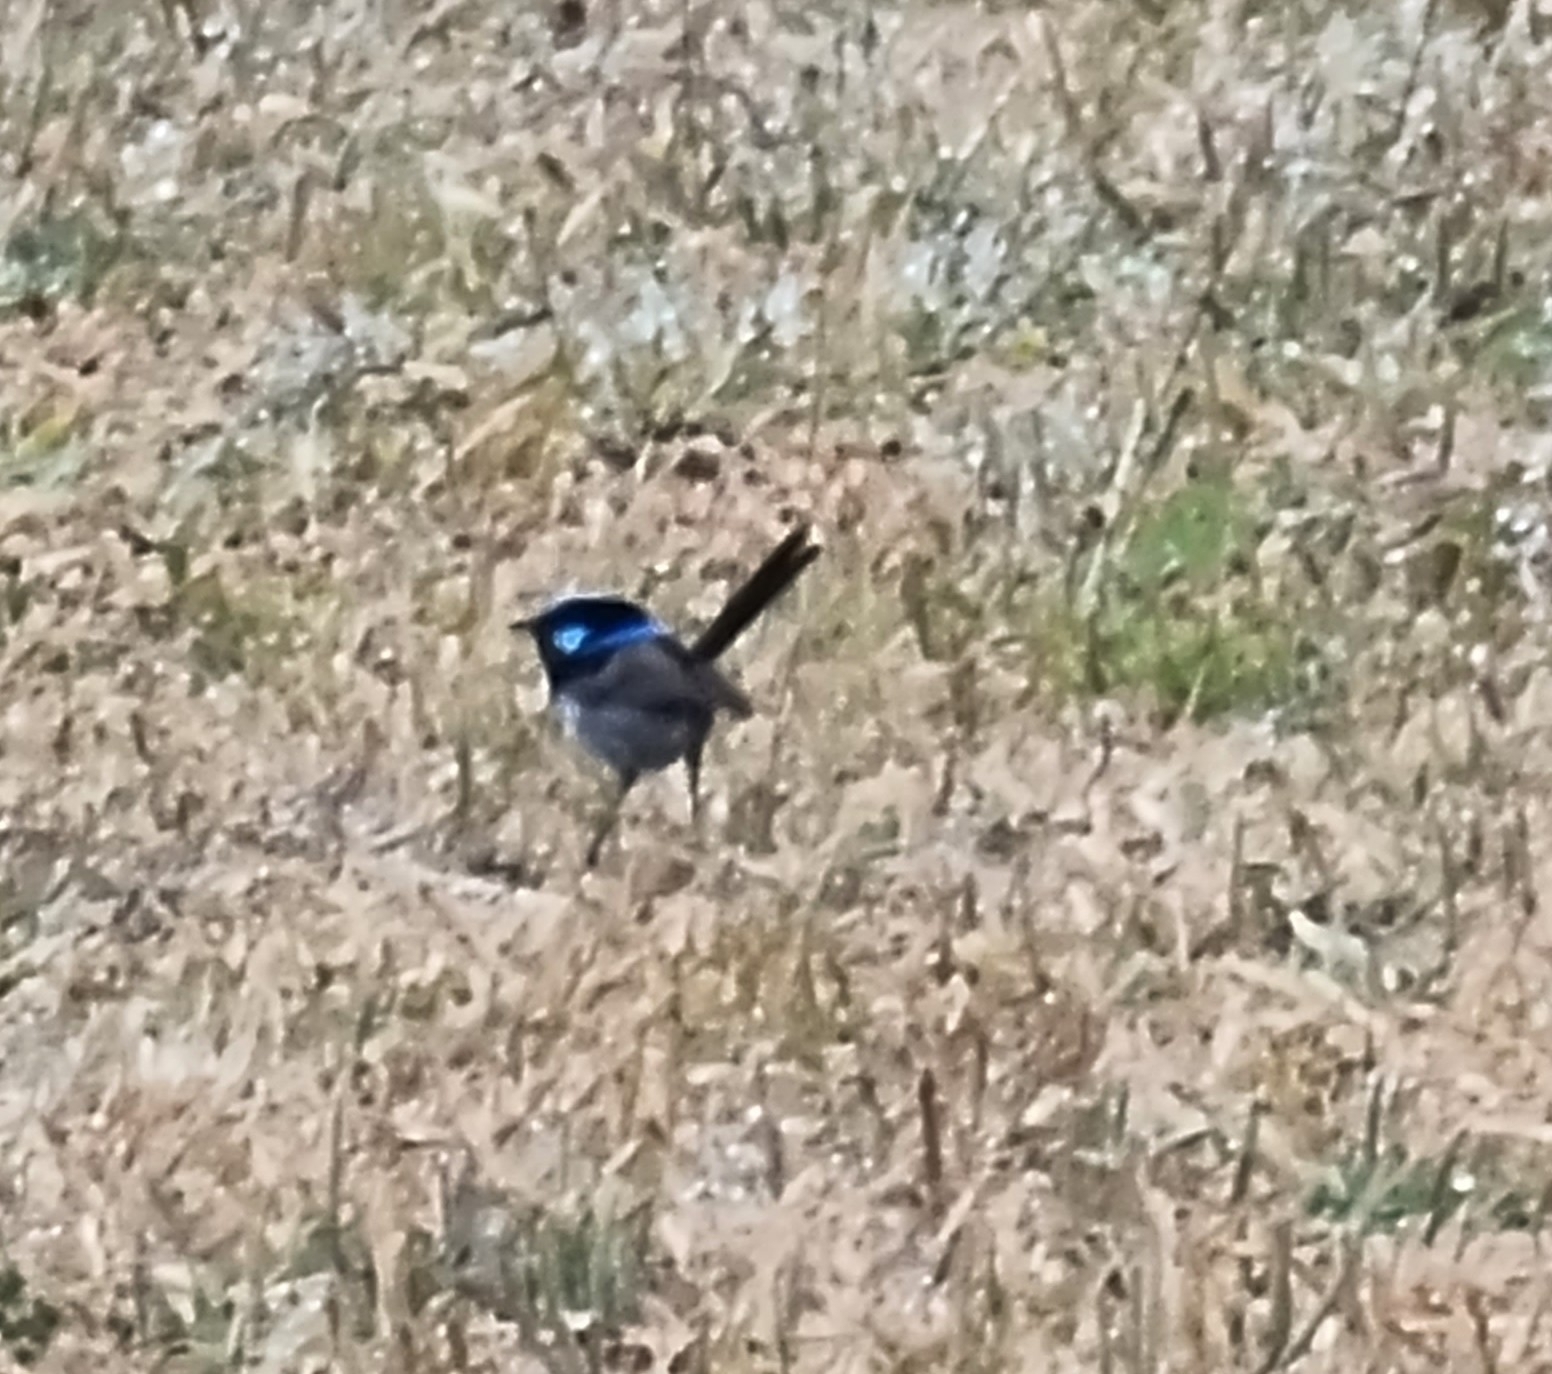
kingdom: Animalia
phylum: Chordata
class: Aves
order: Passeriformes
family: Maluridae
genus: Malurus
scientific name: Malurus cyaneus
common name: Superb fairywren
